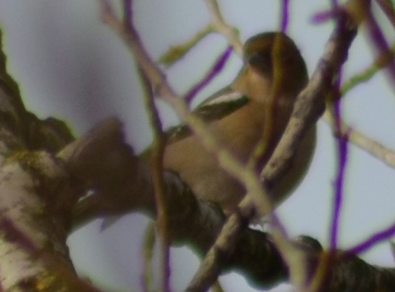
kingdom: Animalia
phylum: Chordata
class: Aves
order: Passeriformes
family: Fringillidae
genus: Fringilla
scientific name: Fringilla coelebs
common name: Common chaffinch
